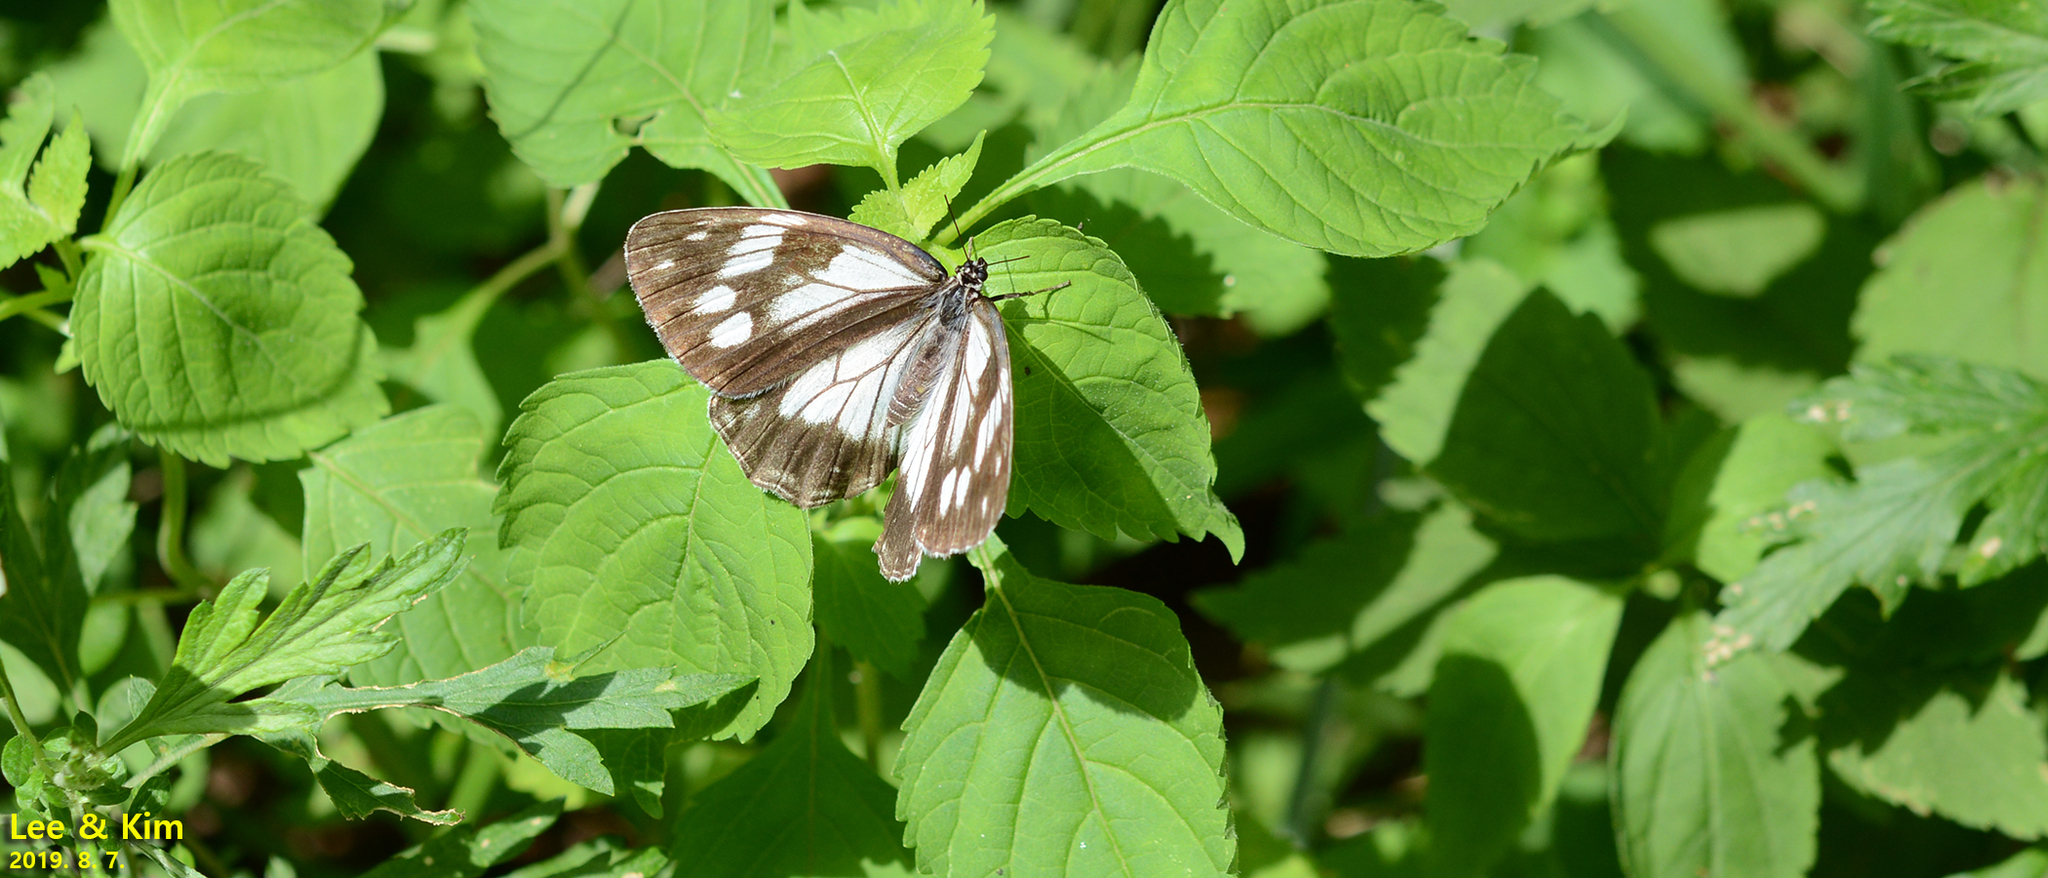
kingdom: Animalia
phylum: Arthropoda
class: Insecta
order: Lepidoptera
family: Nymphalidae
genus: Melanargia
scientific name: Melanargia halimede
